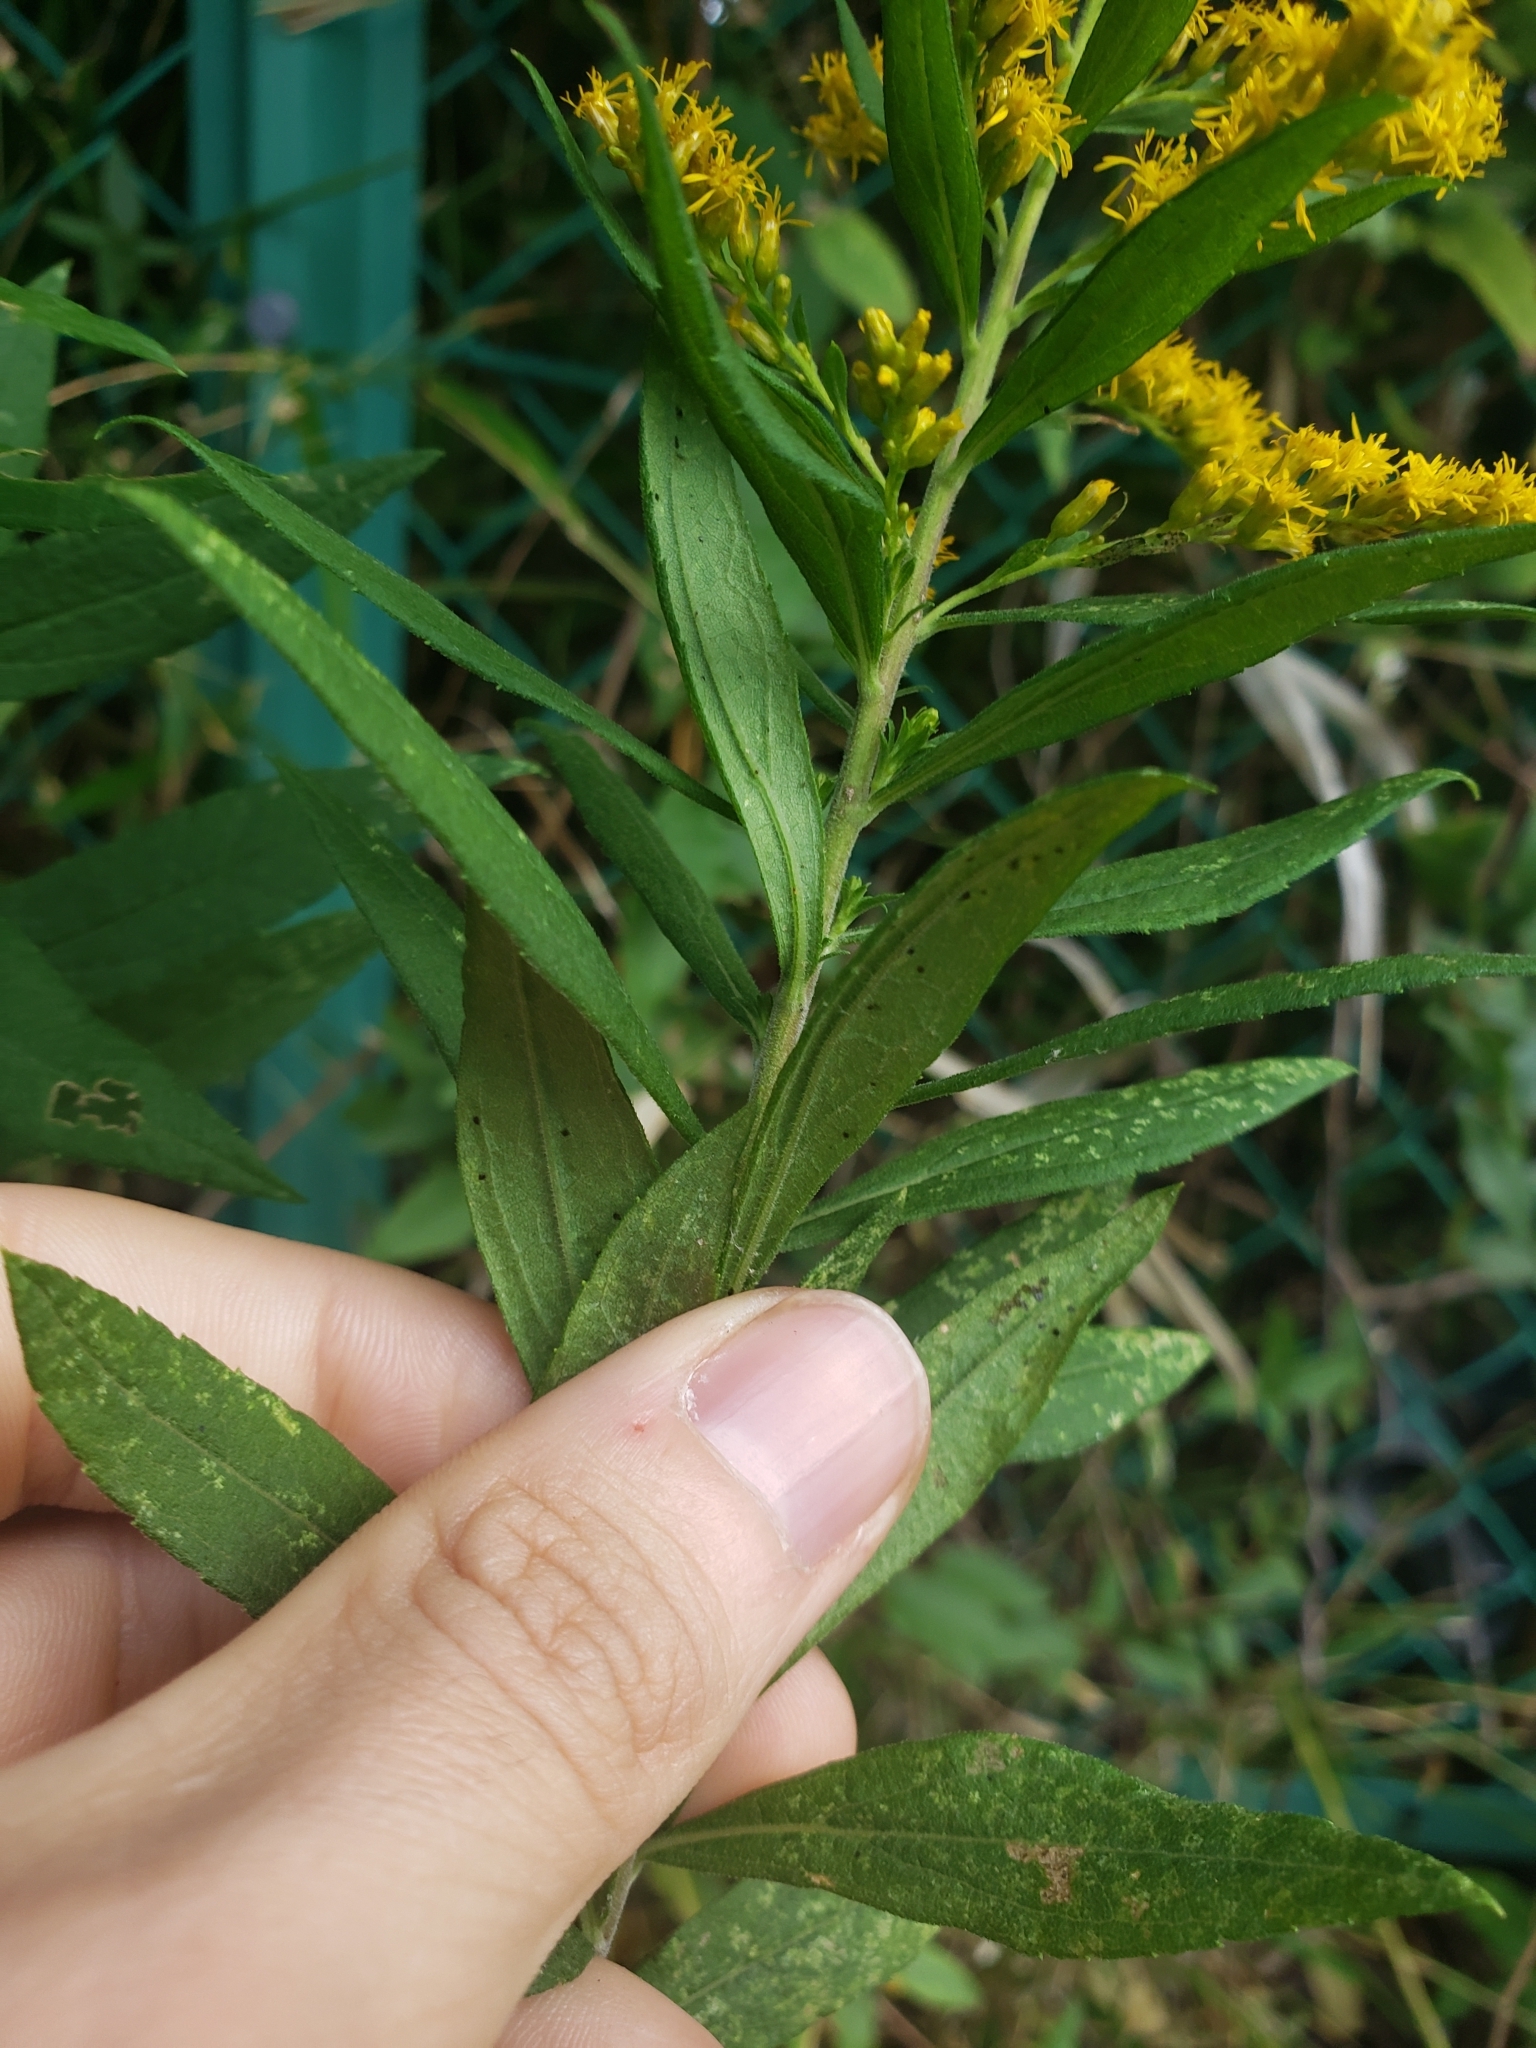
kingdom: Plantae
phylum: Tracheophyta
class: Magnoliopsida
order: Asterales
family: Asteraceae
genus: Solidago
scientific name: Solidago altissima
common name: Late goldenrod
